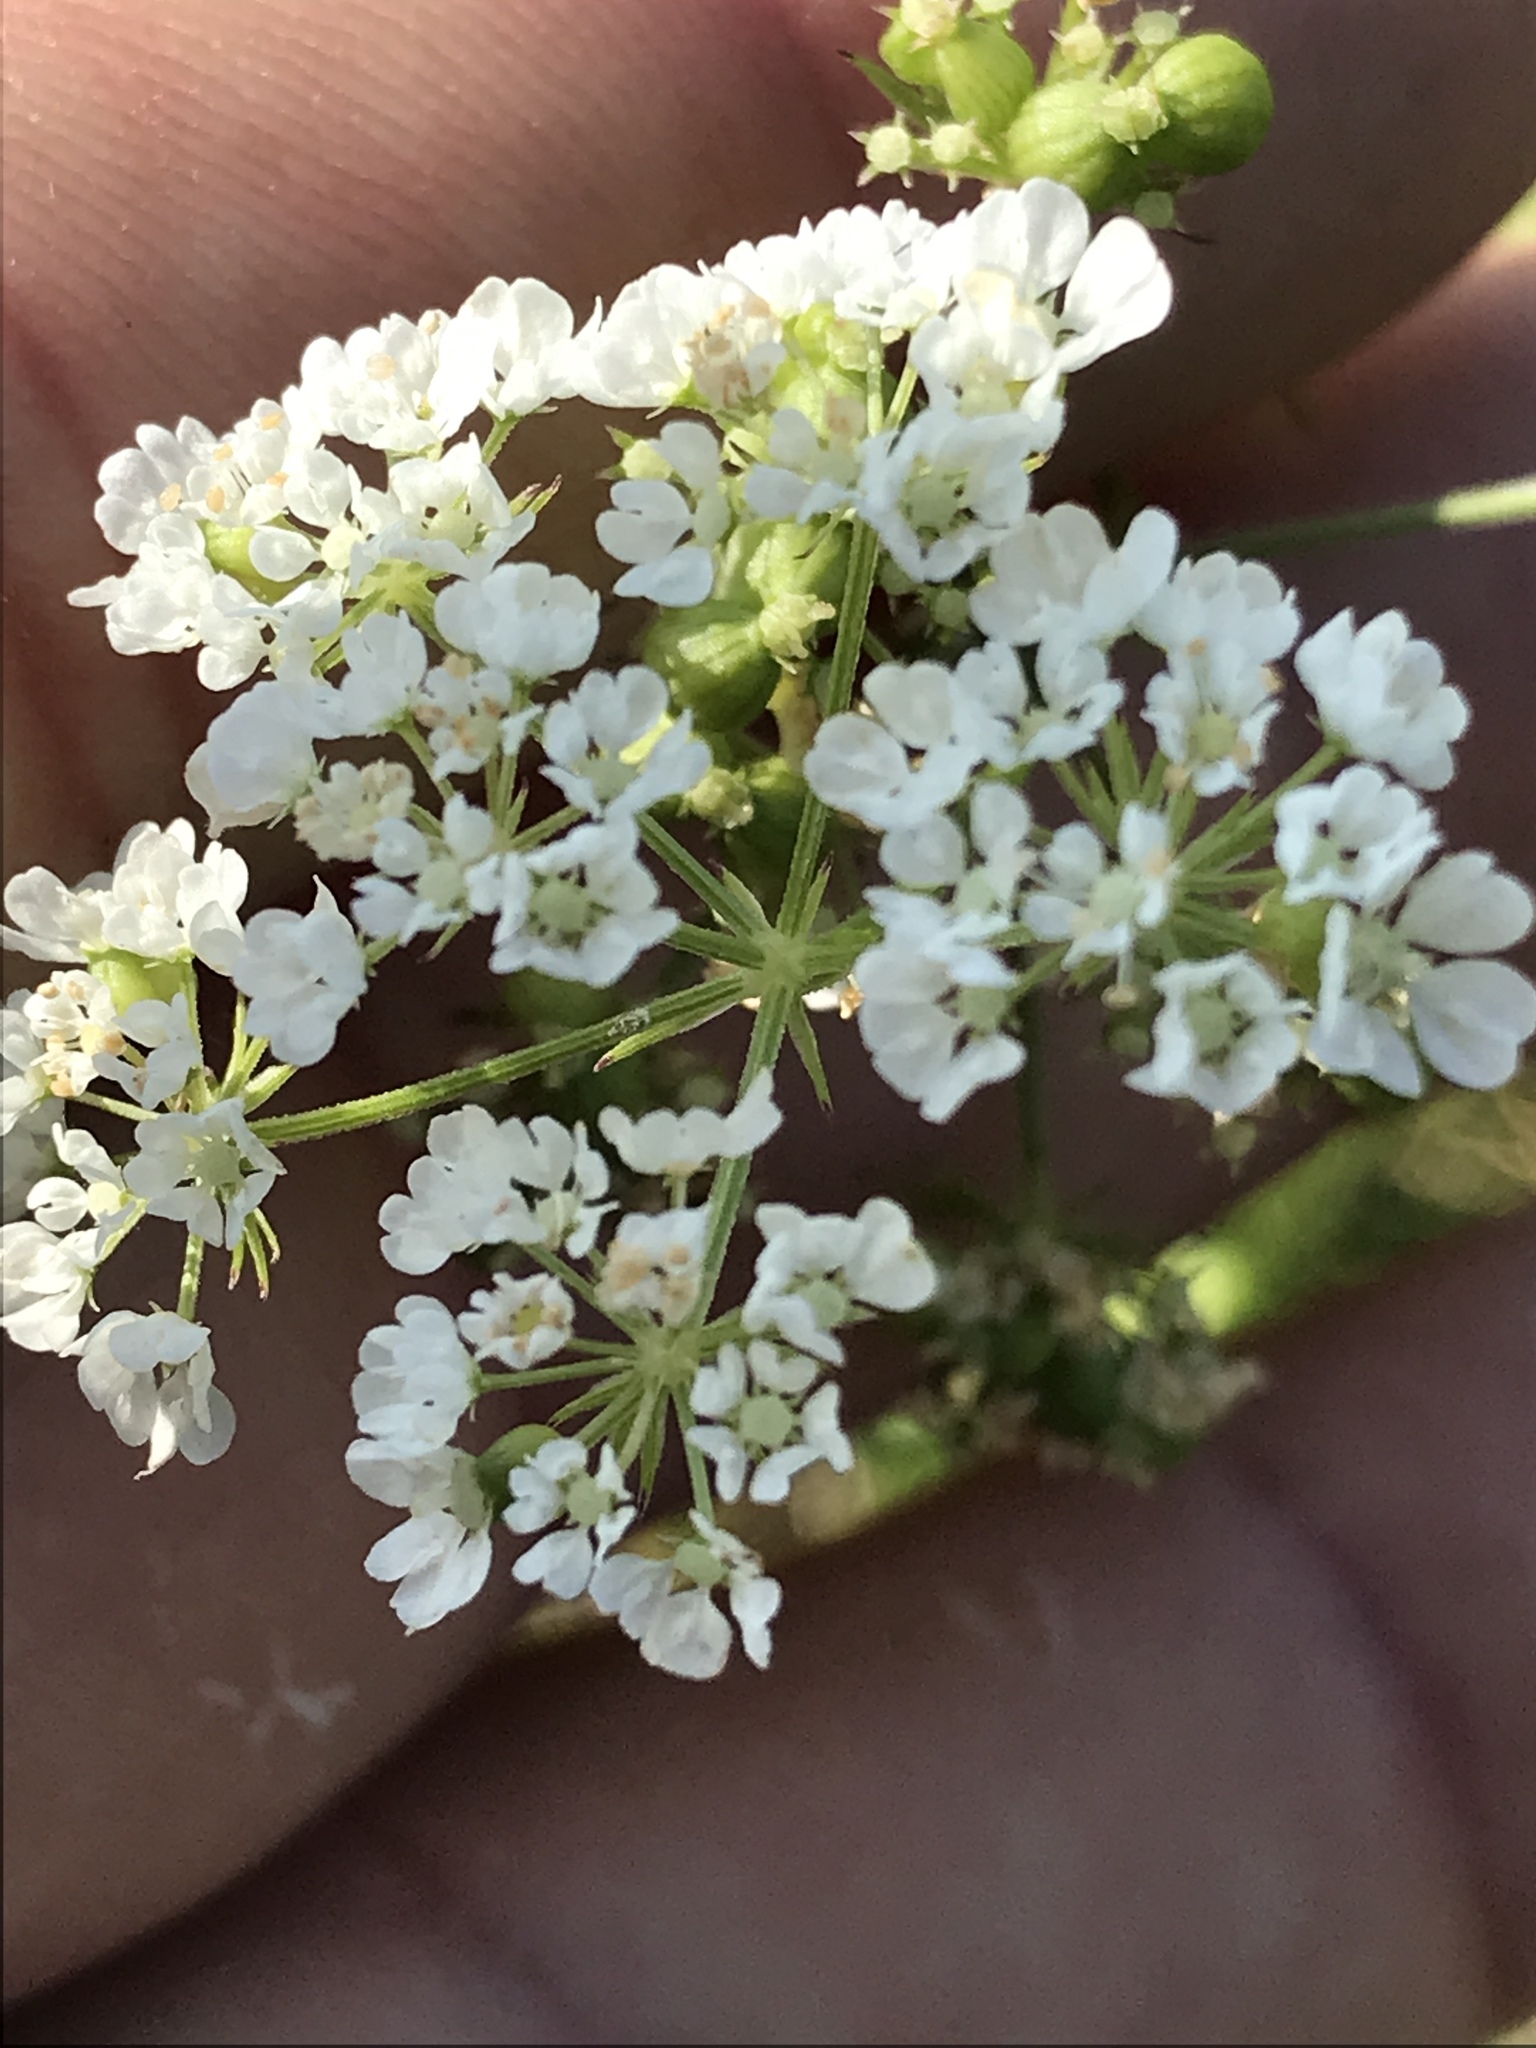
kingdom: Plantae
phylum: Tracheophyta
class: Magnoliopsida
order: Apiales
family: Apiaceae
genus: Atrema
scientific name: Atrema americanum
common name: Prairie-bishop
